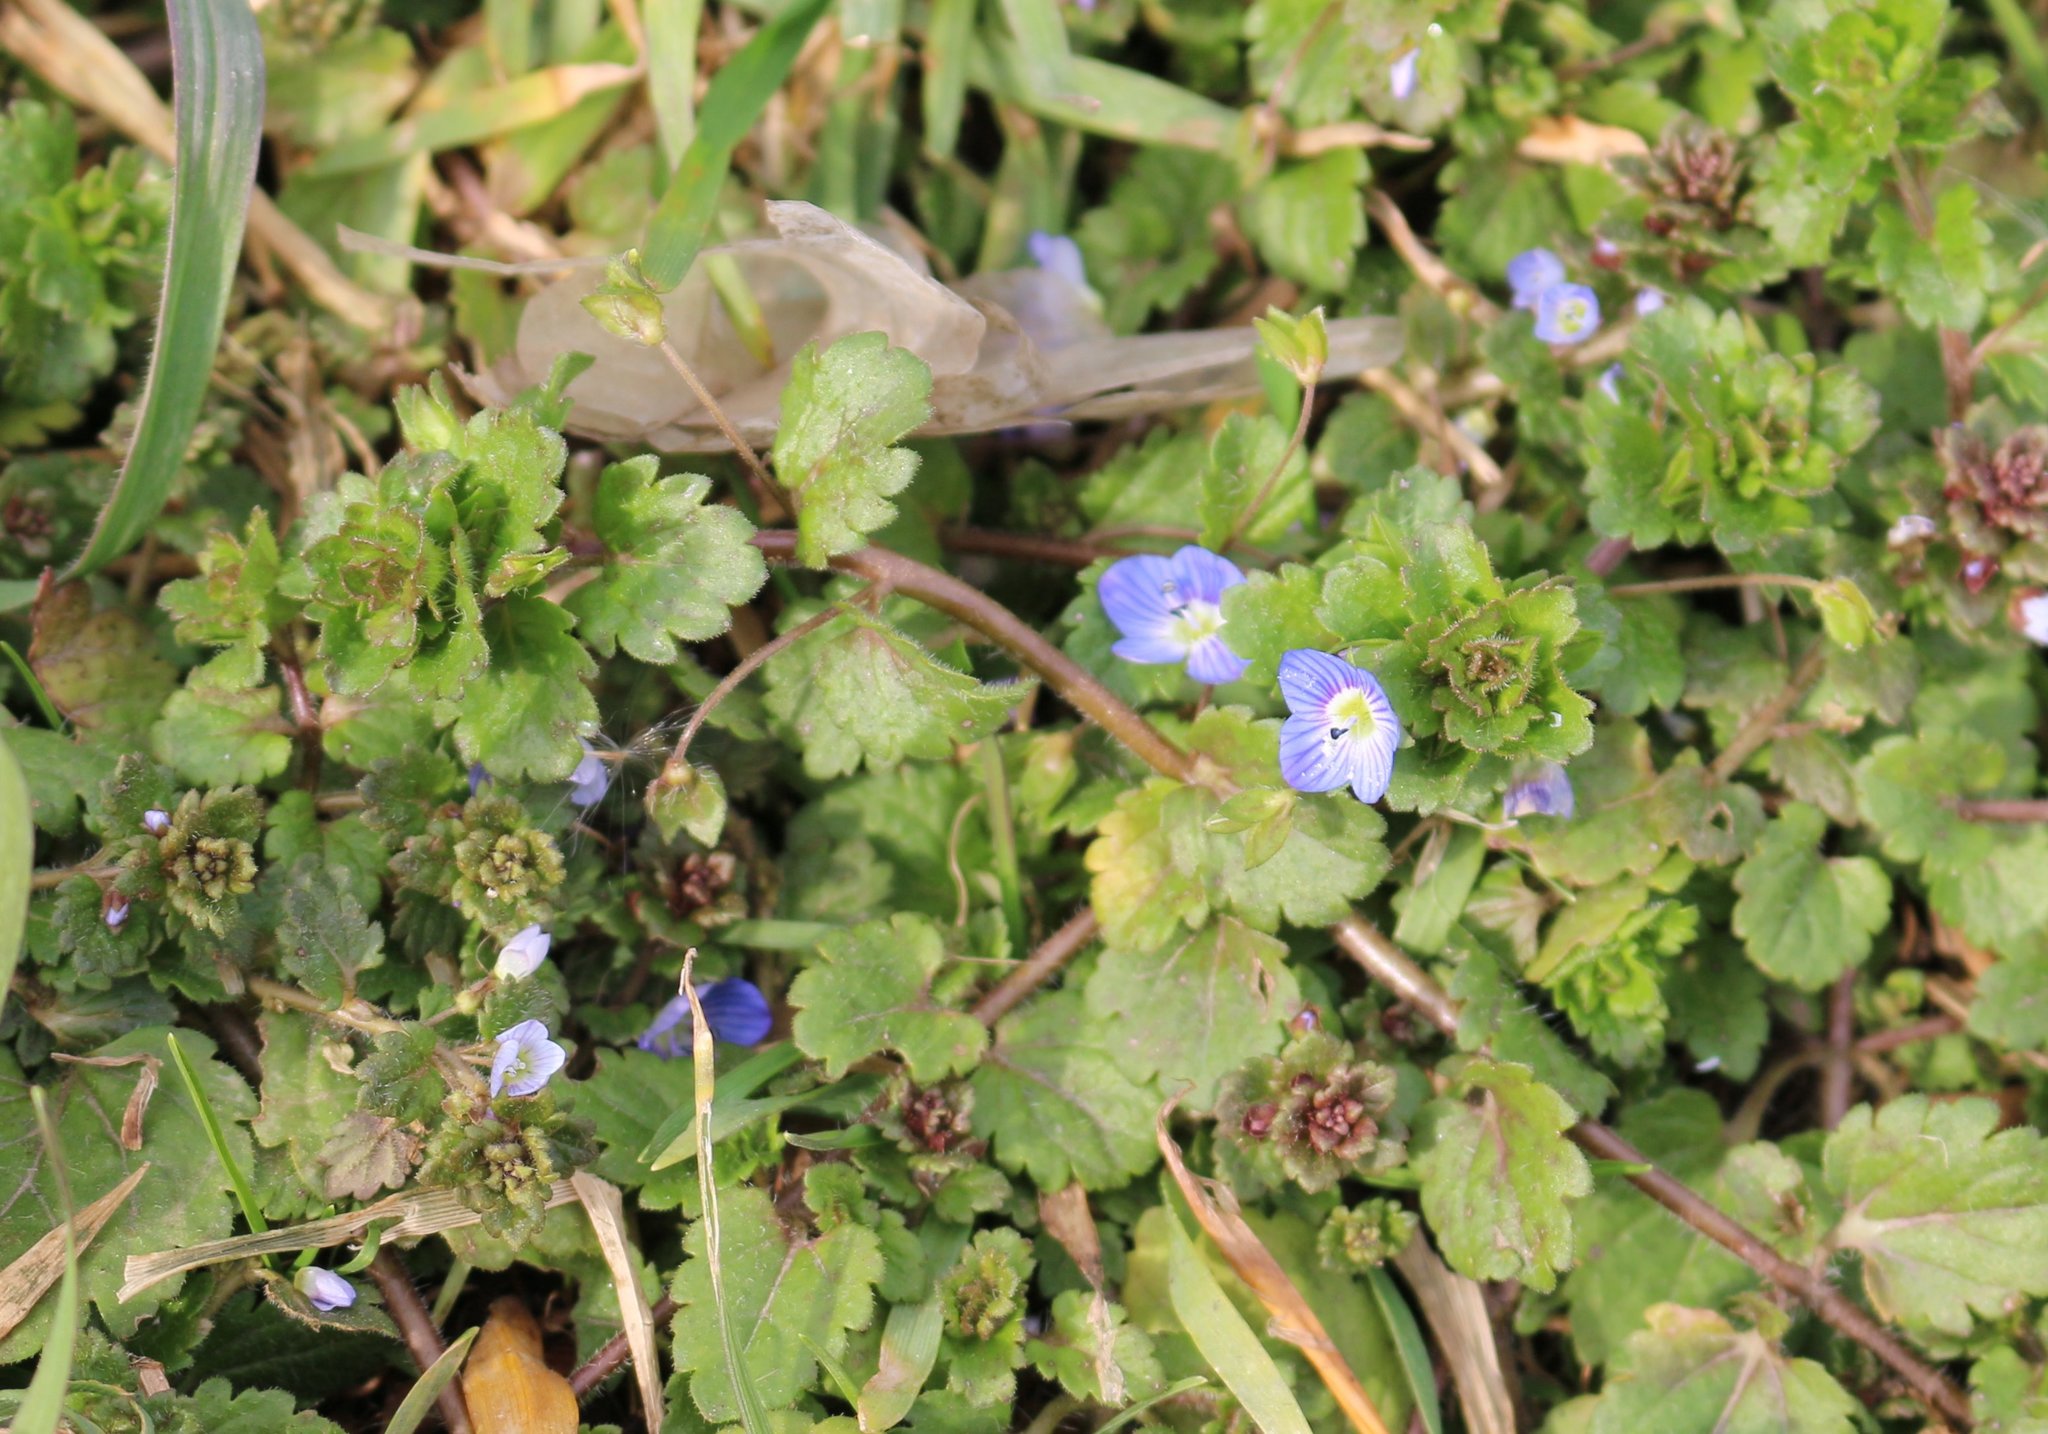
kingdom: Plantae
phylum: Tracheophyta
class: Magnoliopsida
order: Lamiales
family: Plantaginaceae
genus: Veronica
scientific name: Veronica persica
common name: Common field-speedwell
